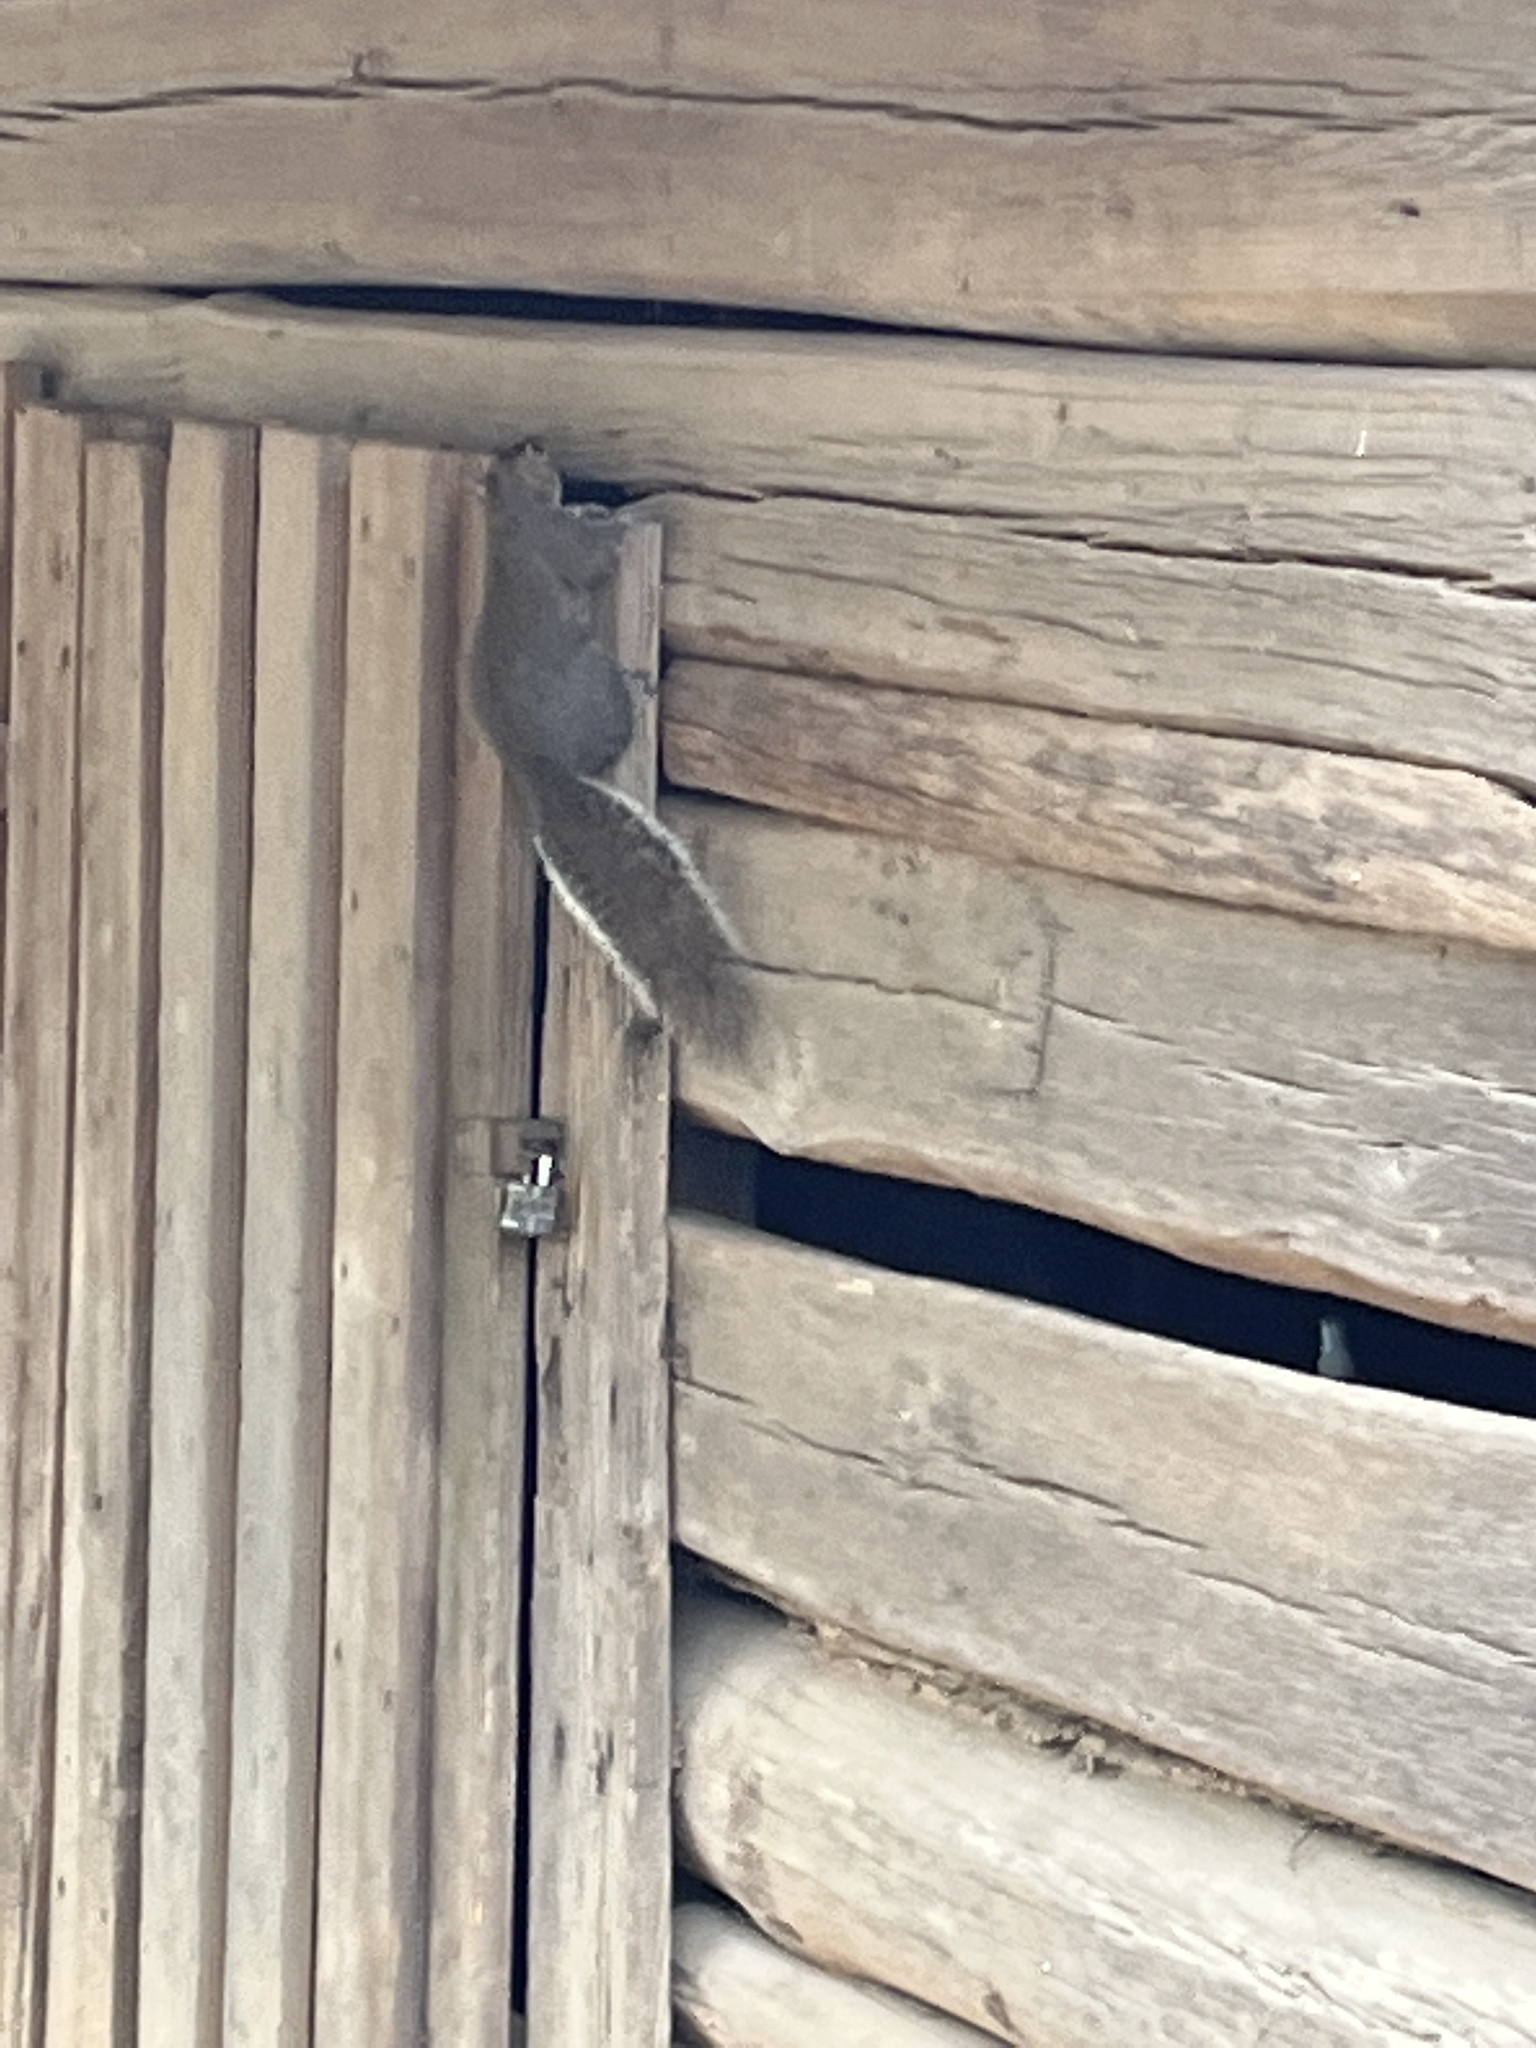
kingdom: Animalia
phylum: Chordata
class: Mammalia
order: Rodentia
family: Sciuridae
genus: Sciurus
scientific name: Sciurus carolinensis
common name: Eastern gray squirrel
